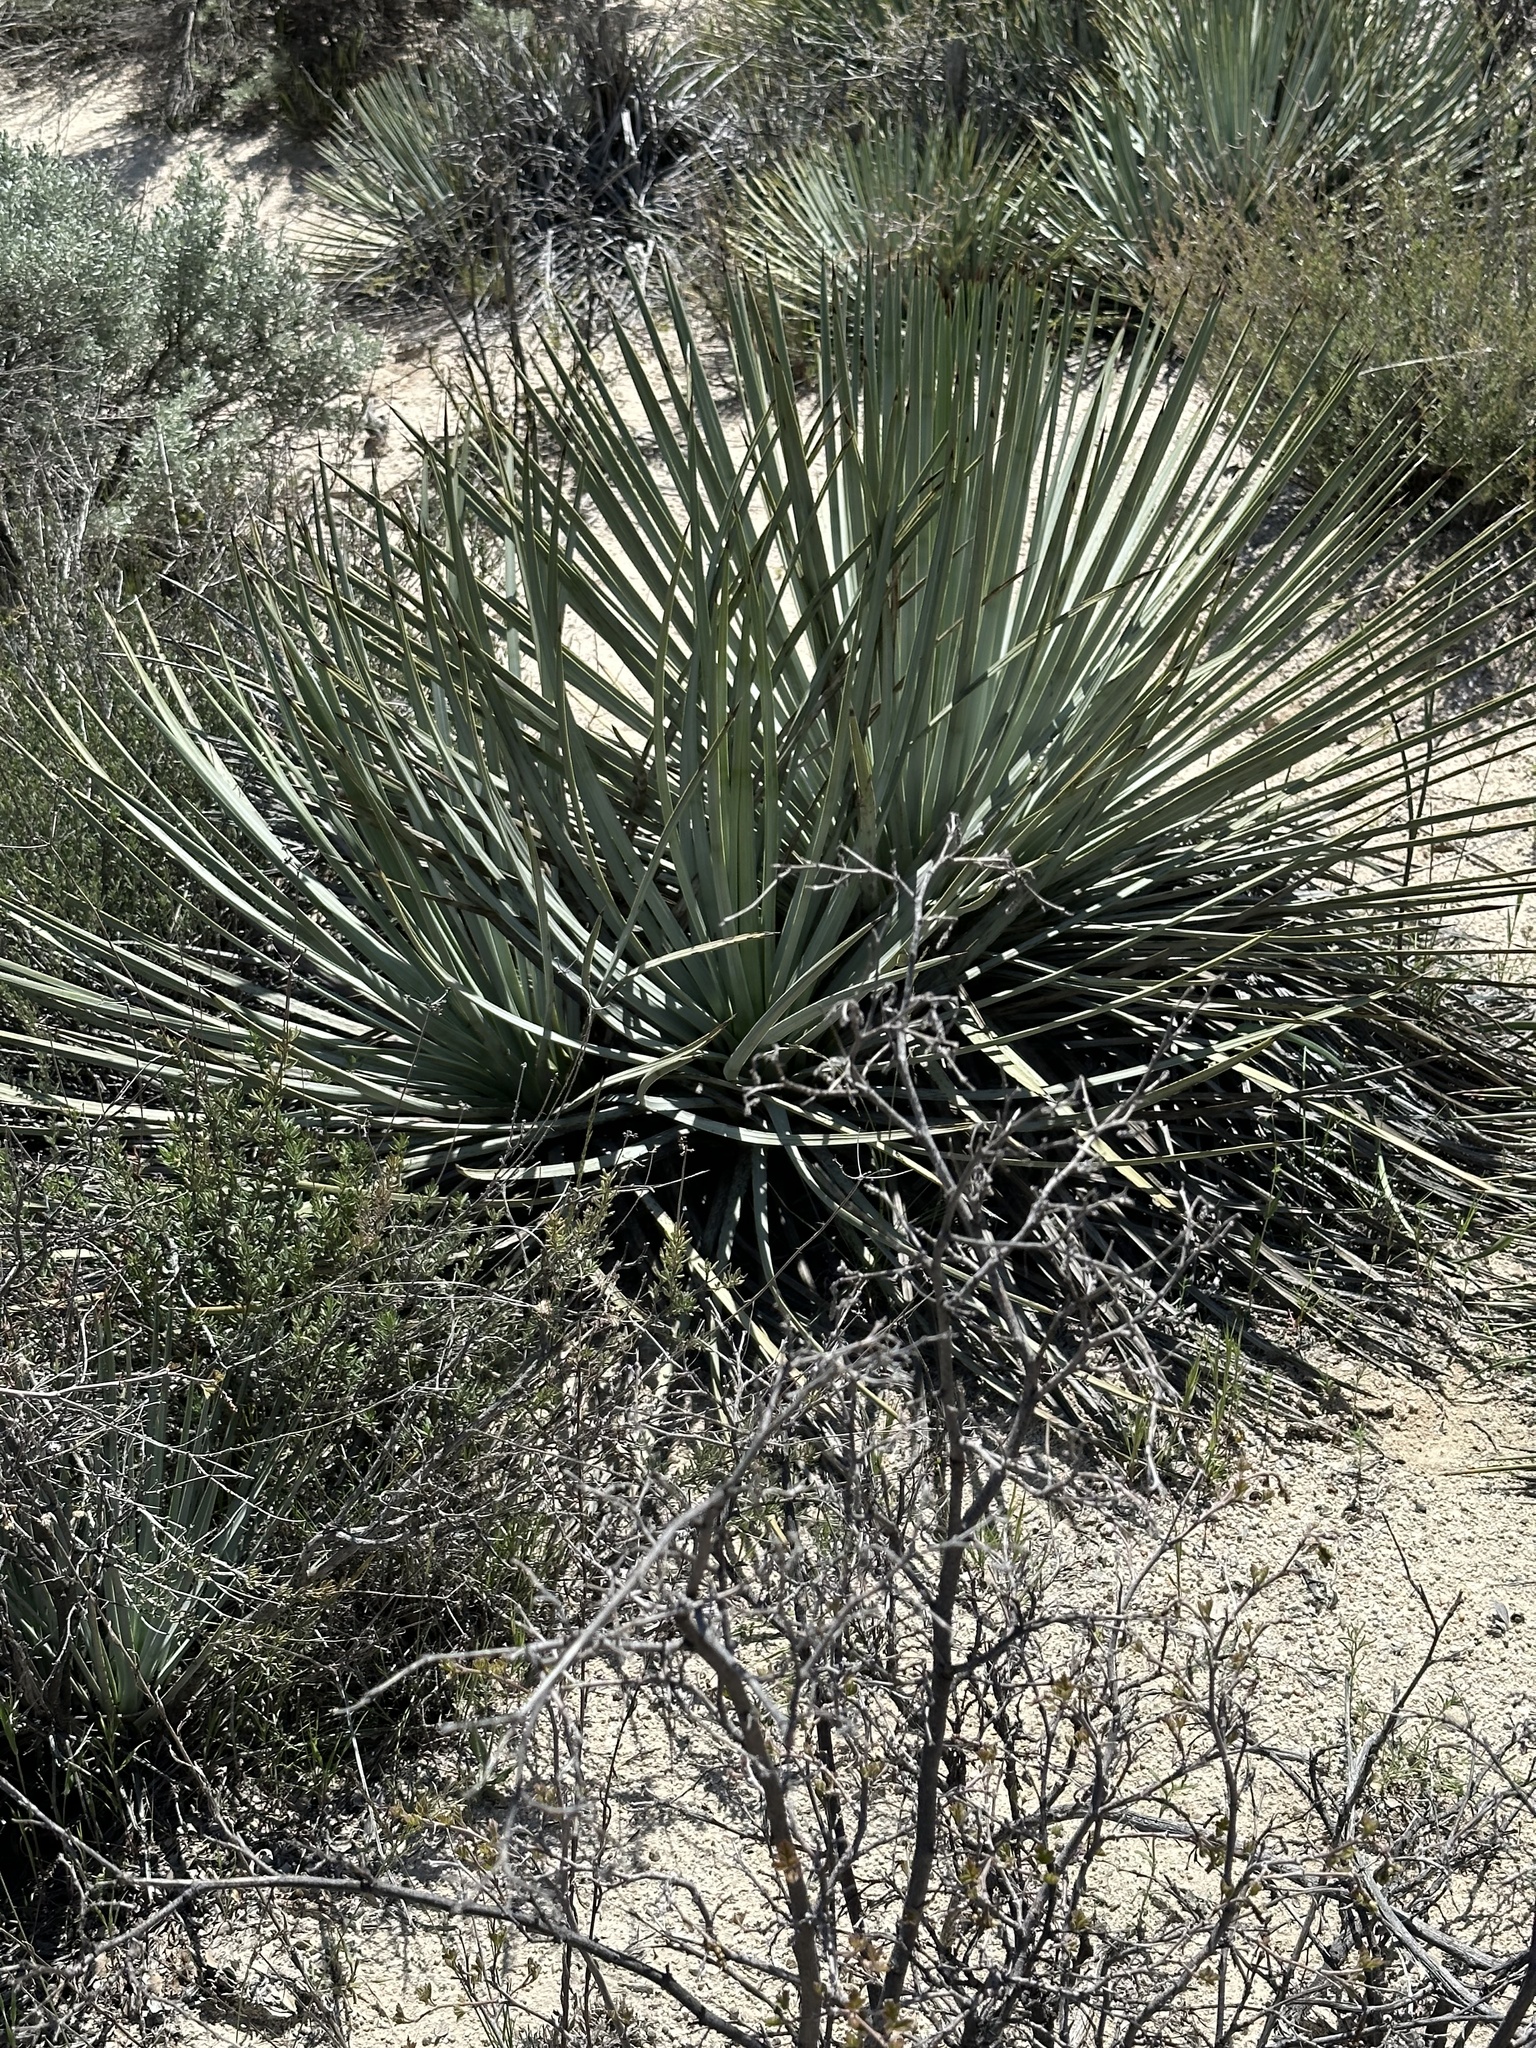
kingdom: Plantae
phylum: Tracheophyta
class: Liliopsida
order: Asparagales
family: Asparagaceae
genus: Hesperoyucca
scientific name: Hesperoyucca whipplei
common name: Our lord's-candle
